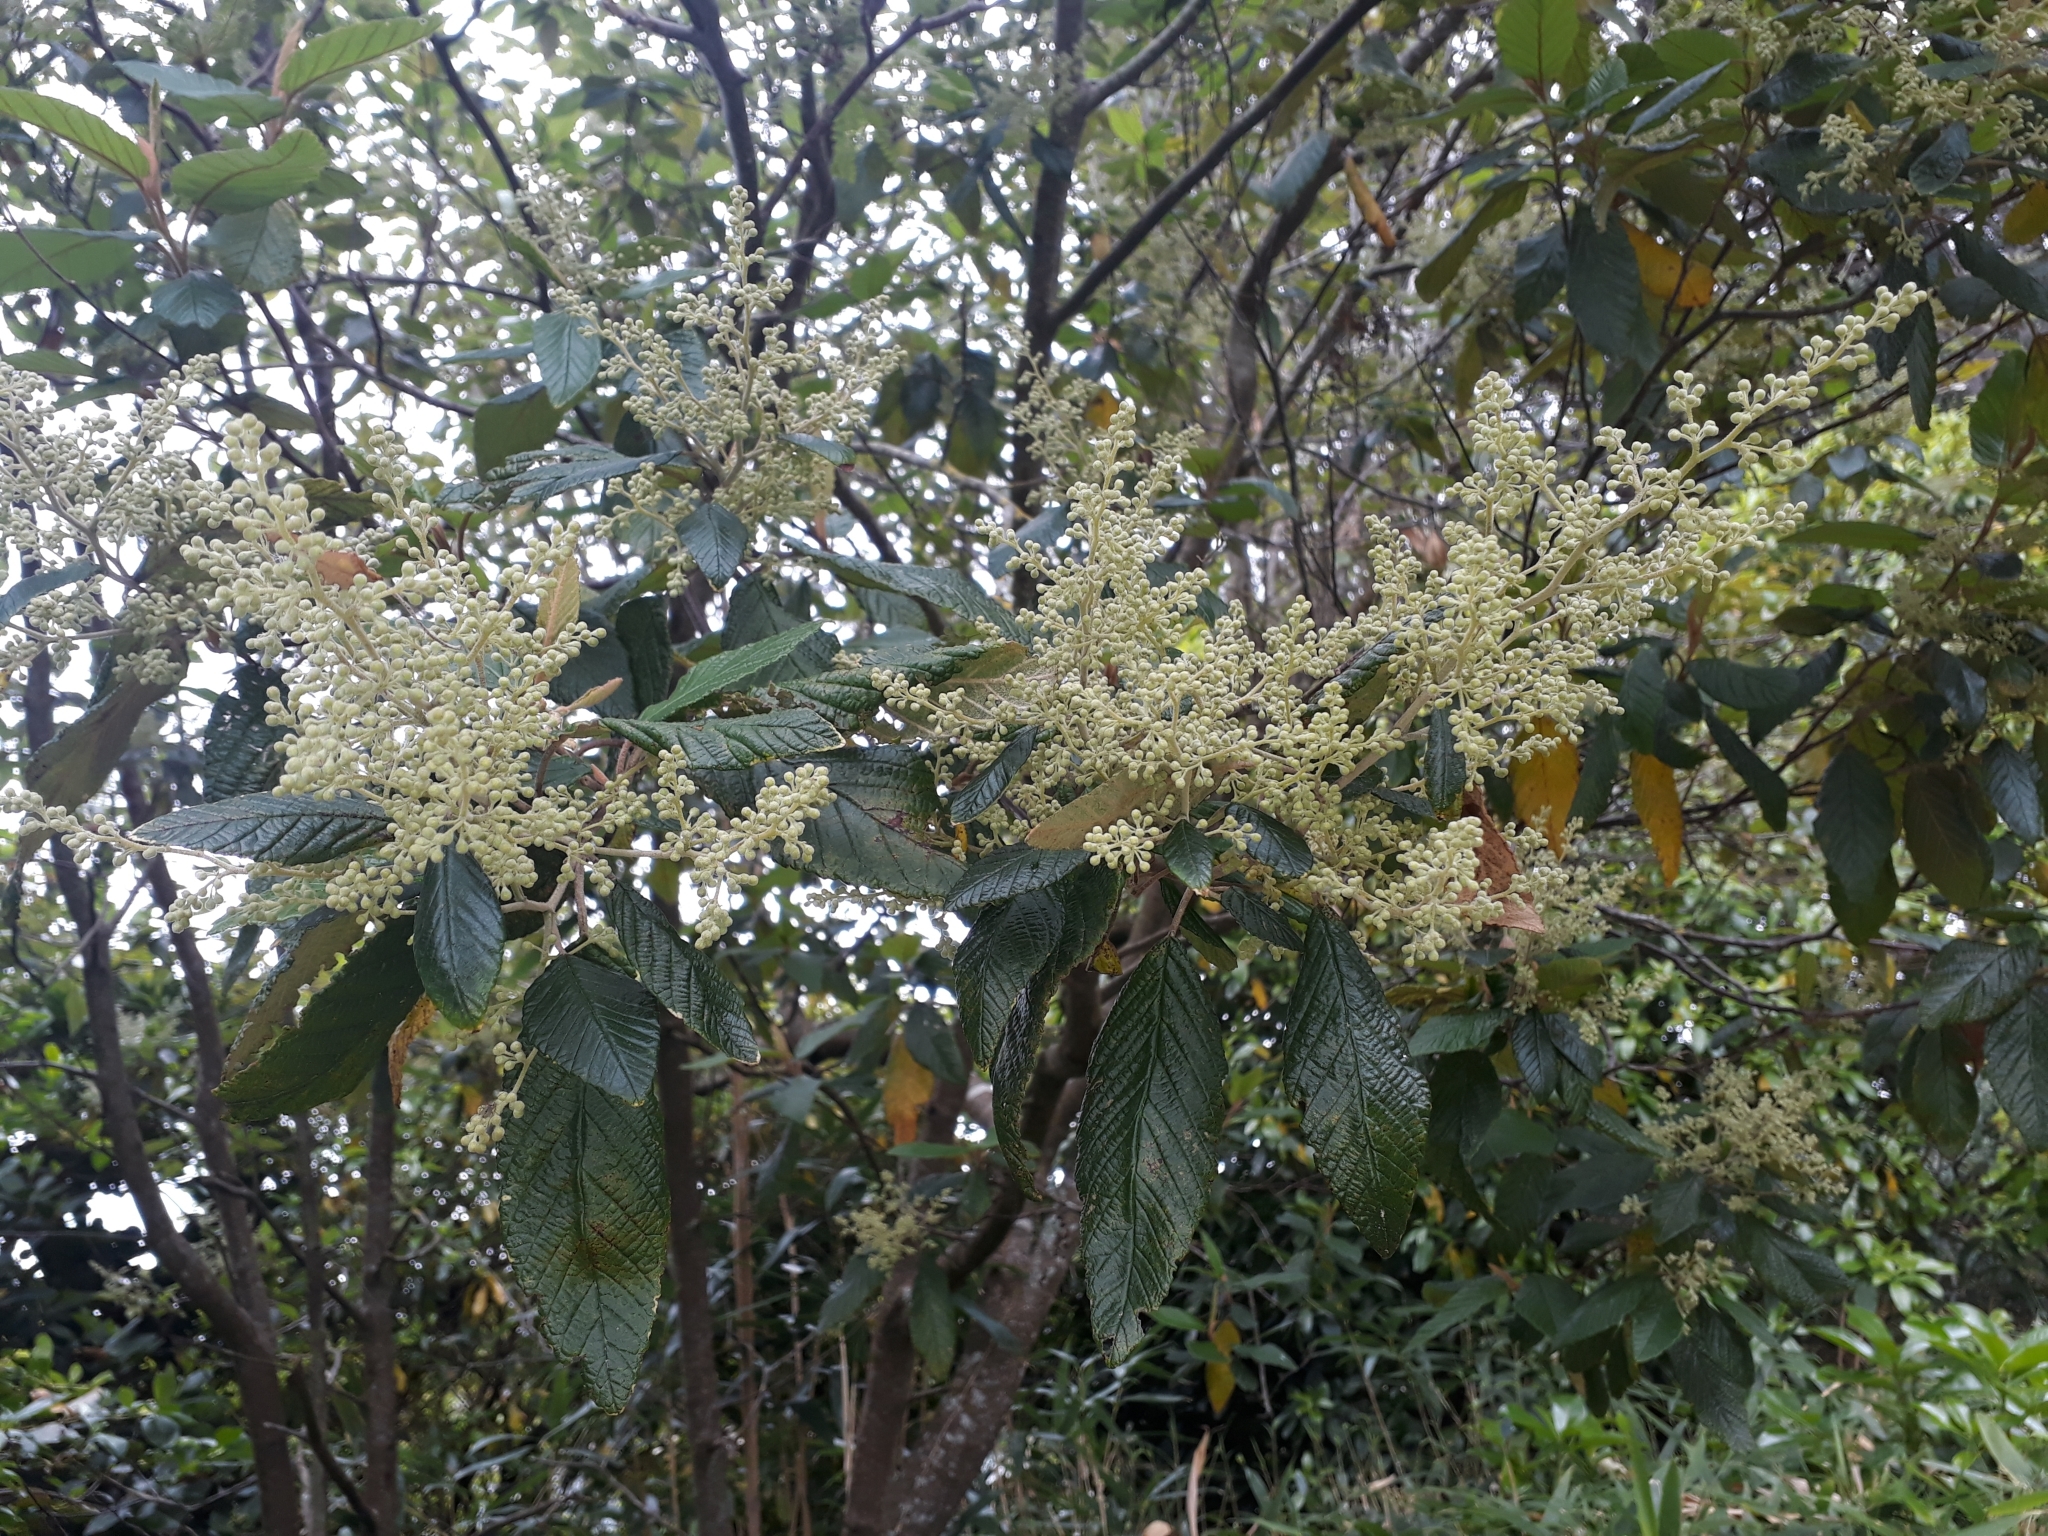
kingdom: Plantae
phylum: Tracheophyta
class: Magnoliopsida
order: Rosales
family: Rhamnaceae
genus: Pomaderris
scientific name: Pomaderris aspera
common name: Hazel pomaderris
